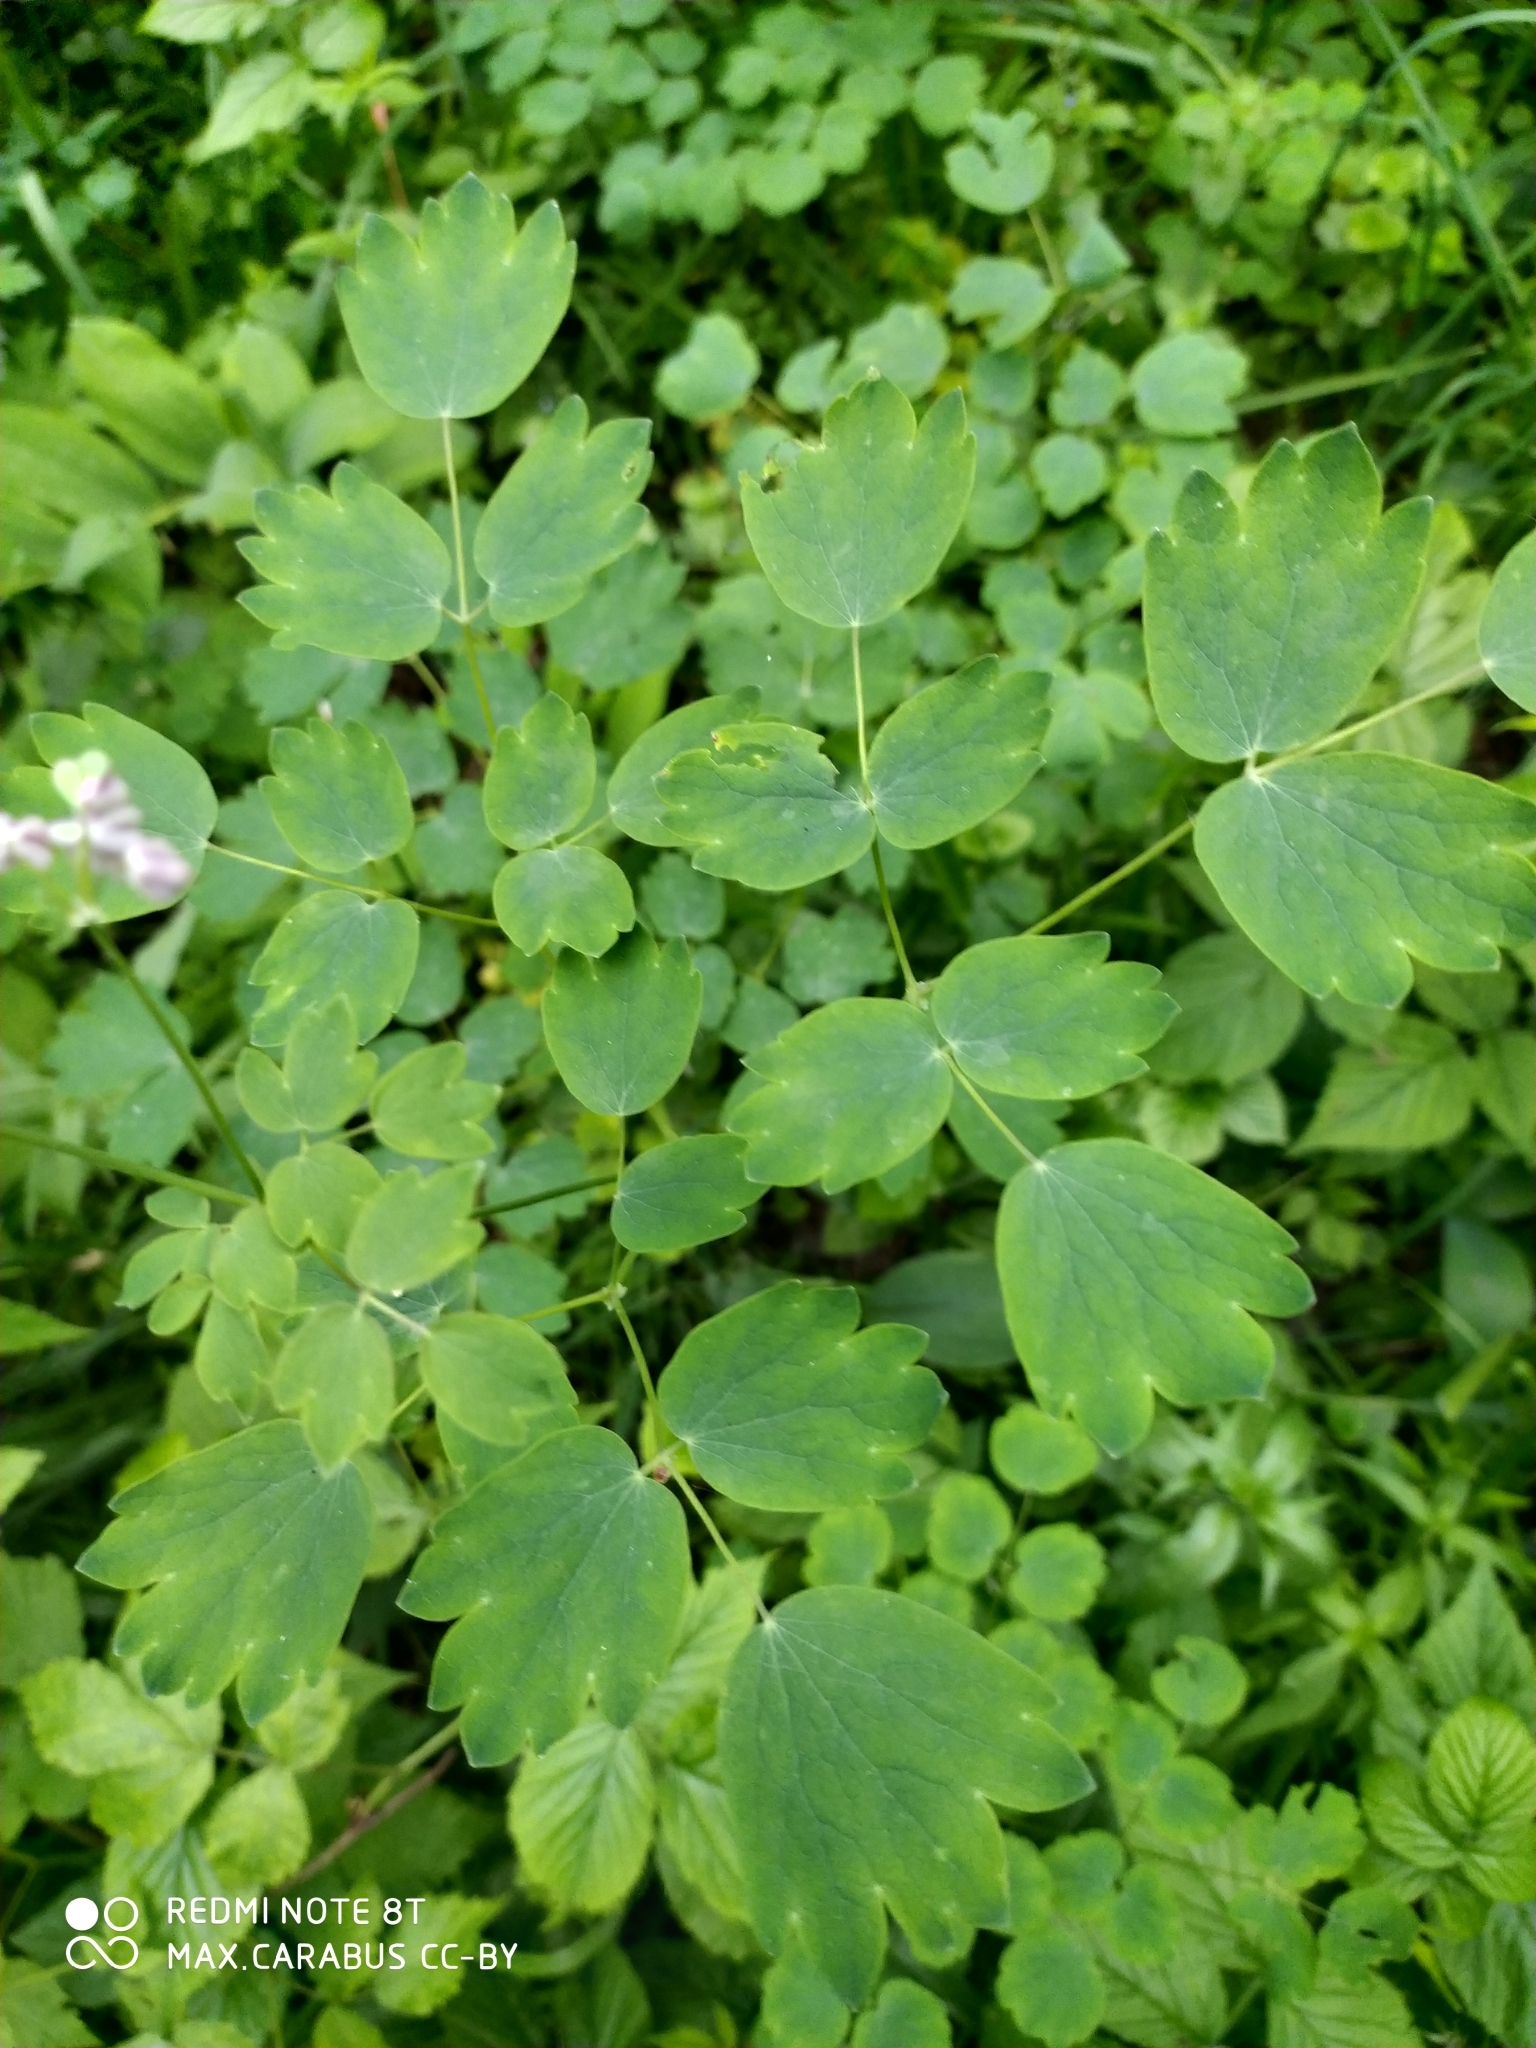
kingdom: Plantae
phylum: Tracheophyta
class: Magnoliopsida
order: Ranunculales
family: Ranunculaceae
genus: Thalictrum
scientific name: Thalictrum aquilegiifolium
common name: French meadow-rue
